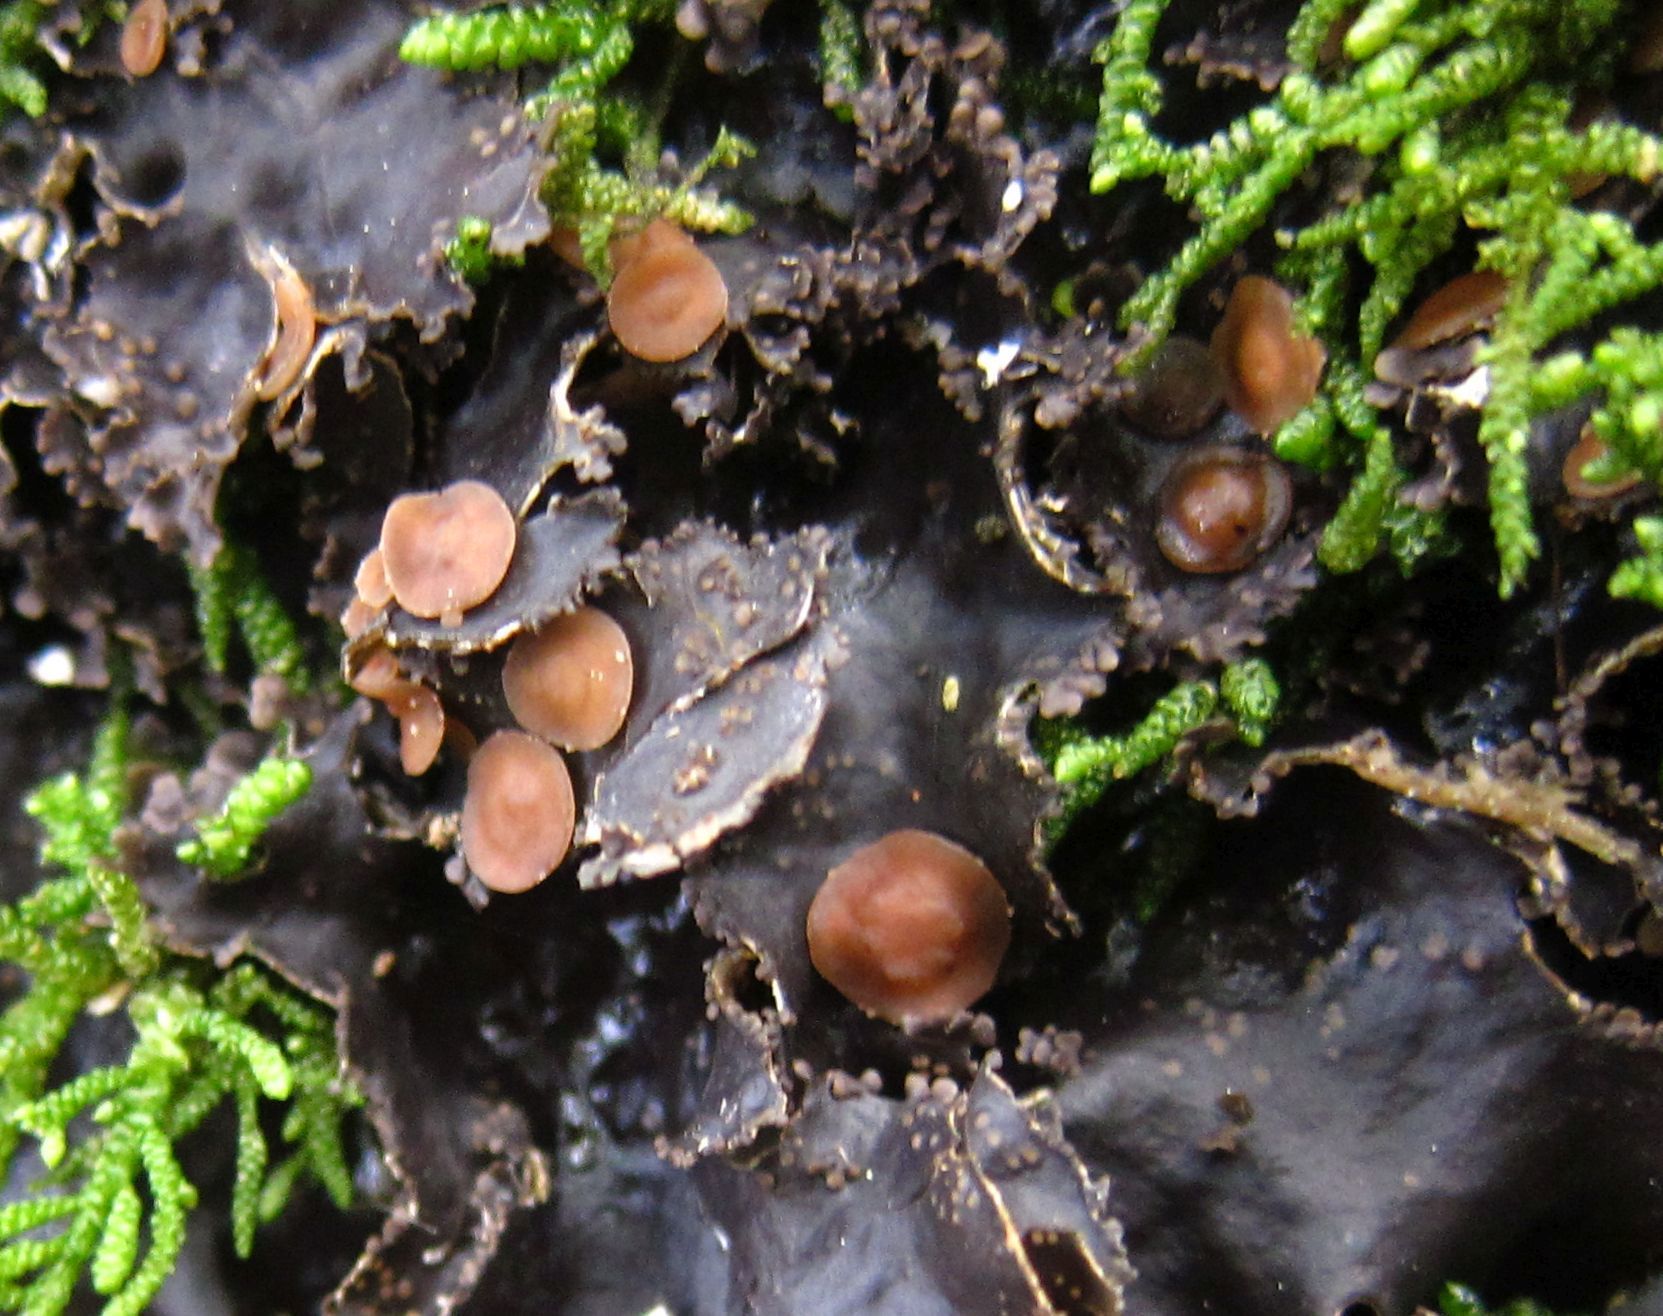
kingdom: Fungi
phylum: Ascomycota
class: Lecanoromycetes
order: Peltigerales
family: Lobariaceae
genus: Pseudocyphellaria
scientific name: Pseudocyphellaria fimbriatoides
